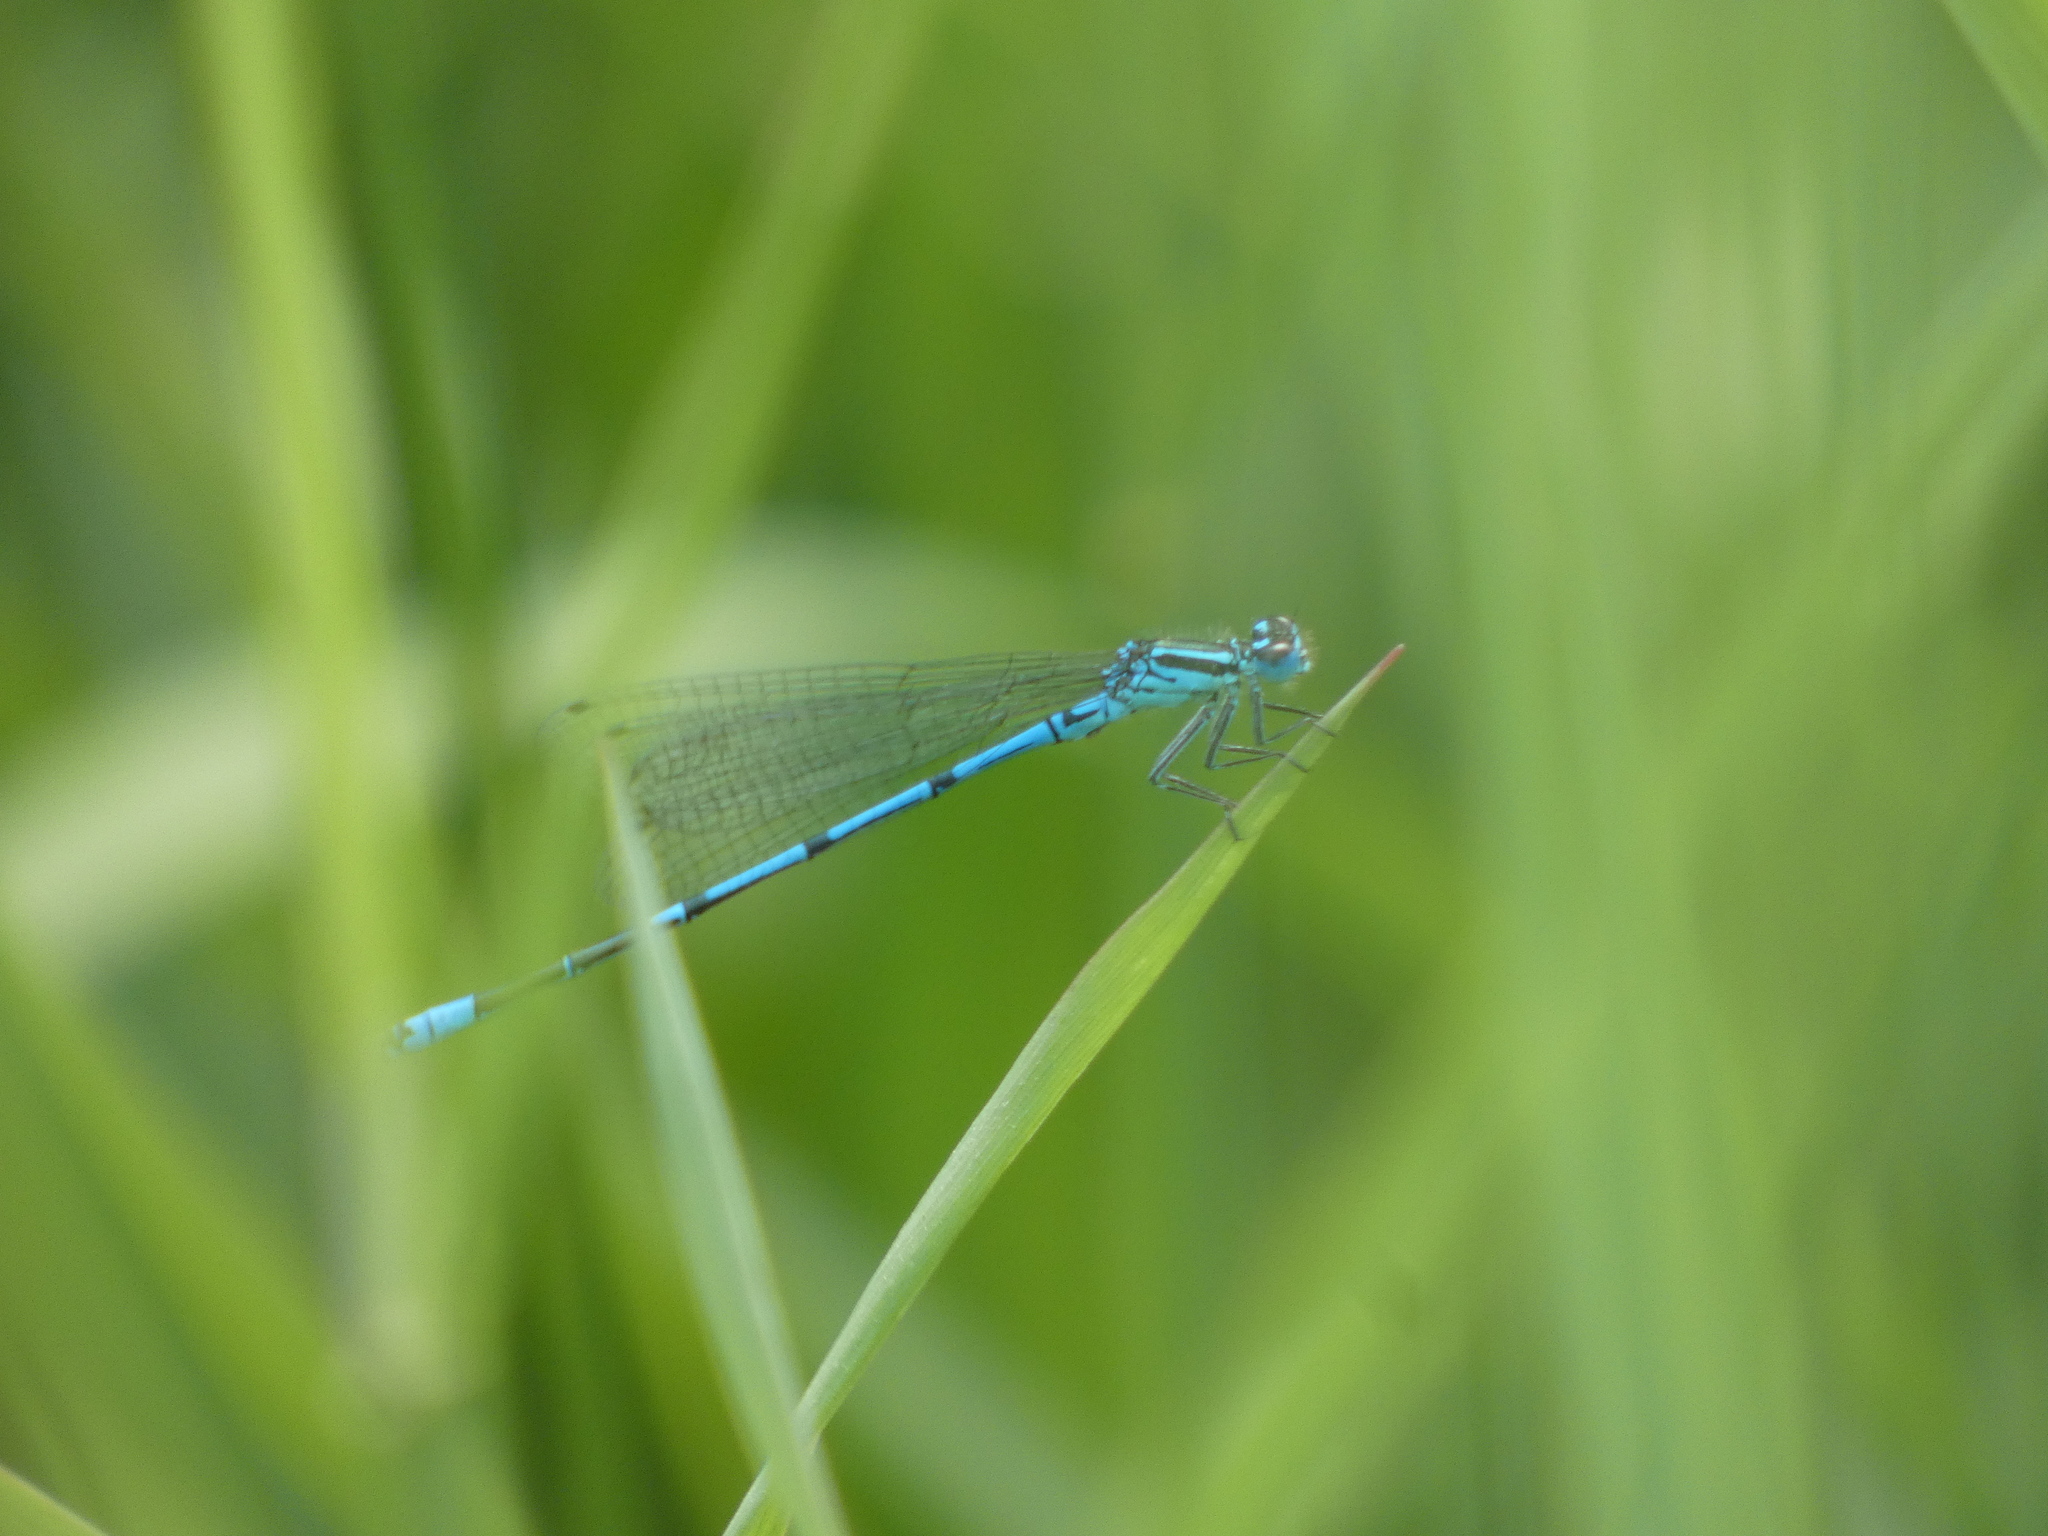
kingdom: Animalia
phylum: Arthropoda
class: Insecta
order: Odonata
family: Coenagrionidae
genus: Coenagrion
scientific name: Coenagrion puella
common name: Azure damselfly
